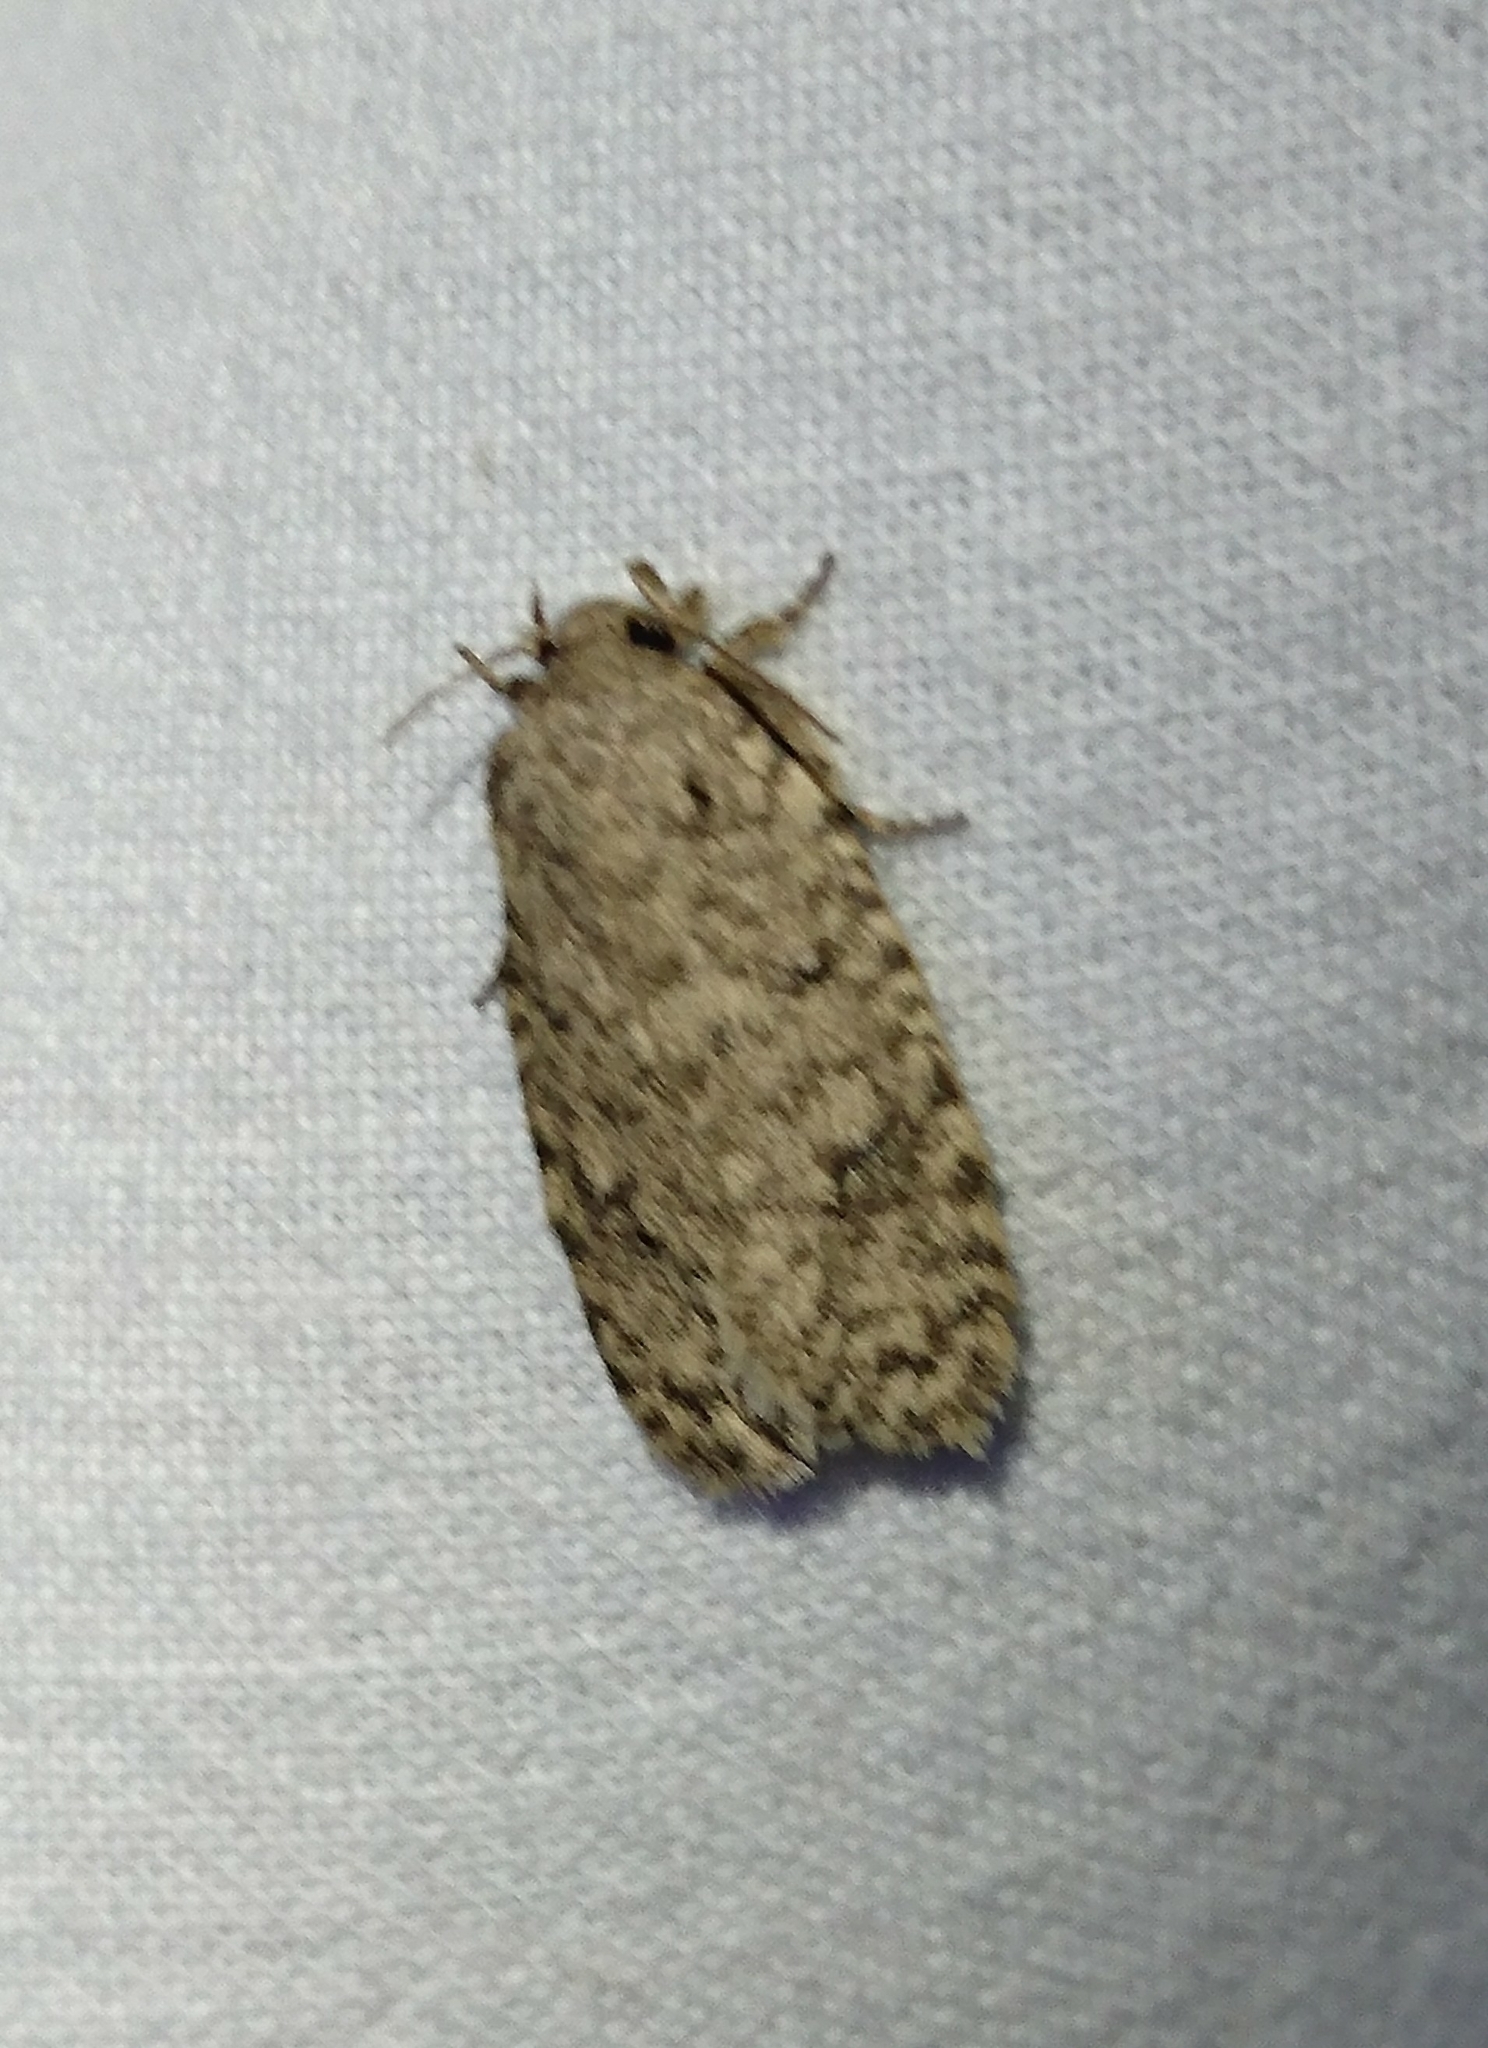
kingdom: Animalia
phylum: Arthropoda
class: Insecta
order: Lepidoptera
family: Tineidae
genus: Tiquadra
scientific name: Tiquadra inscitella
